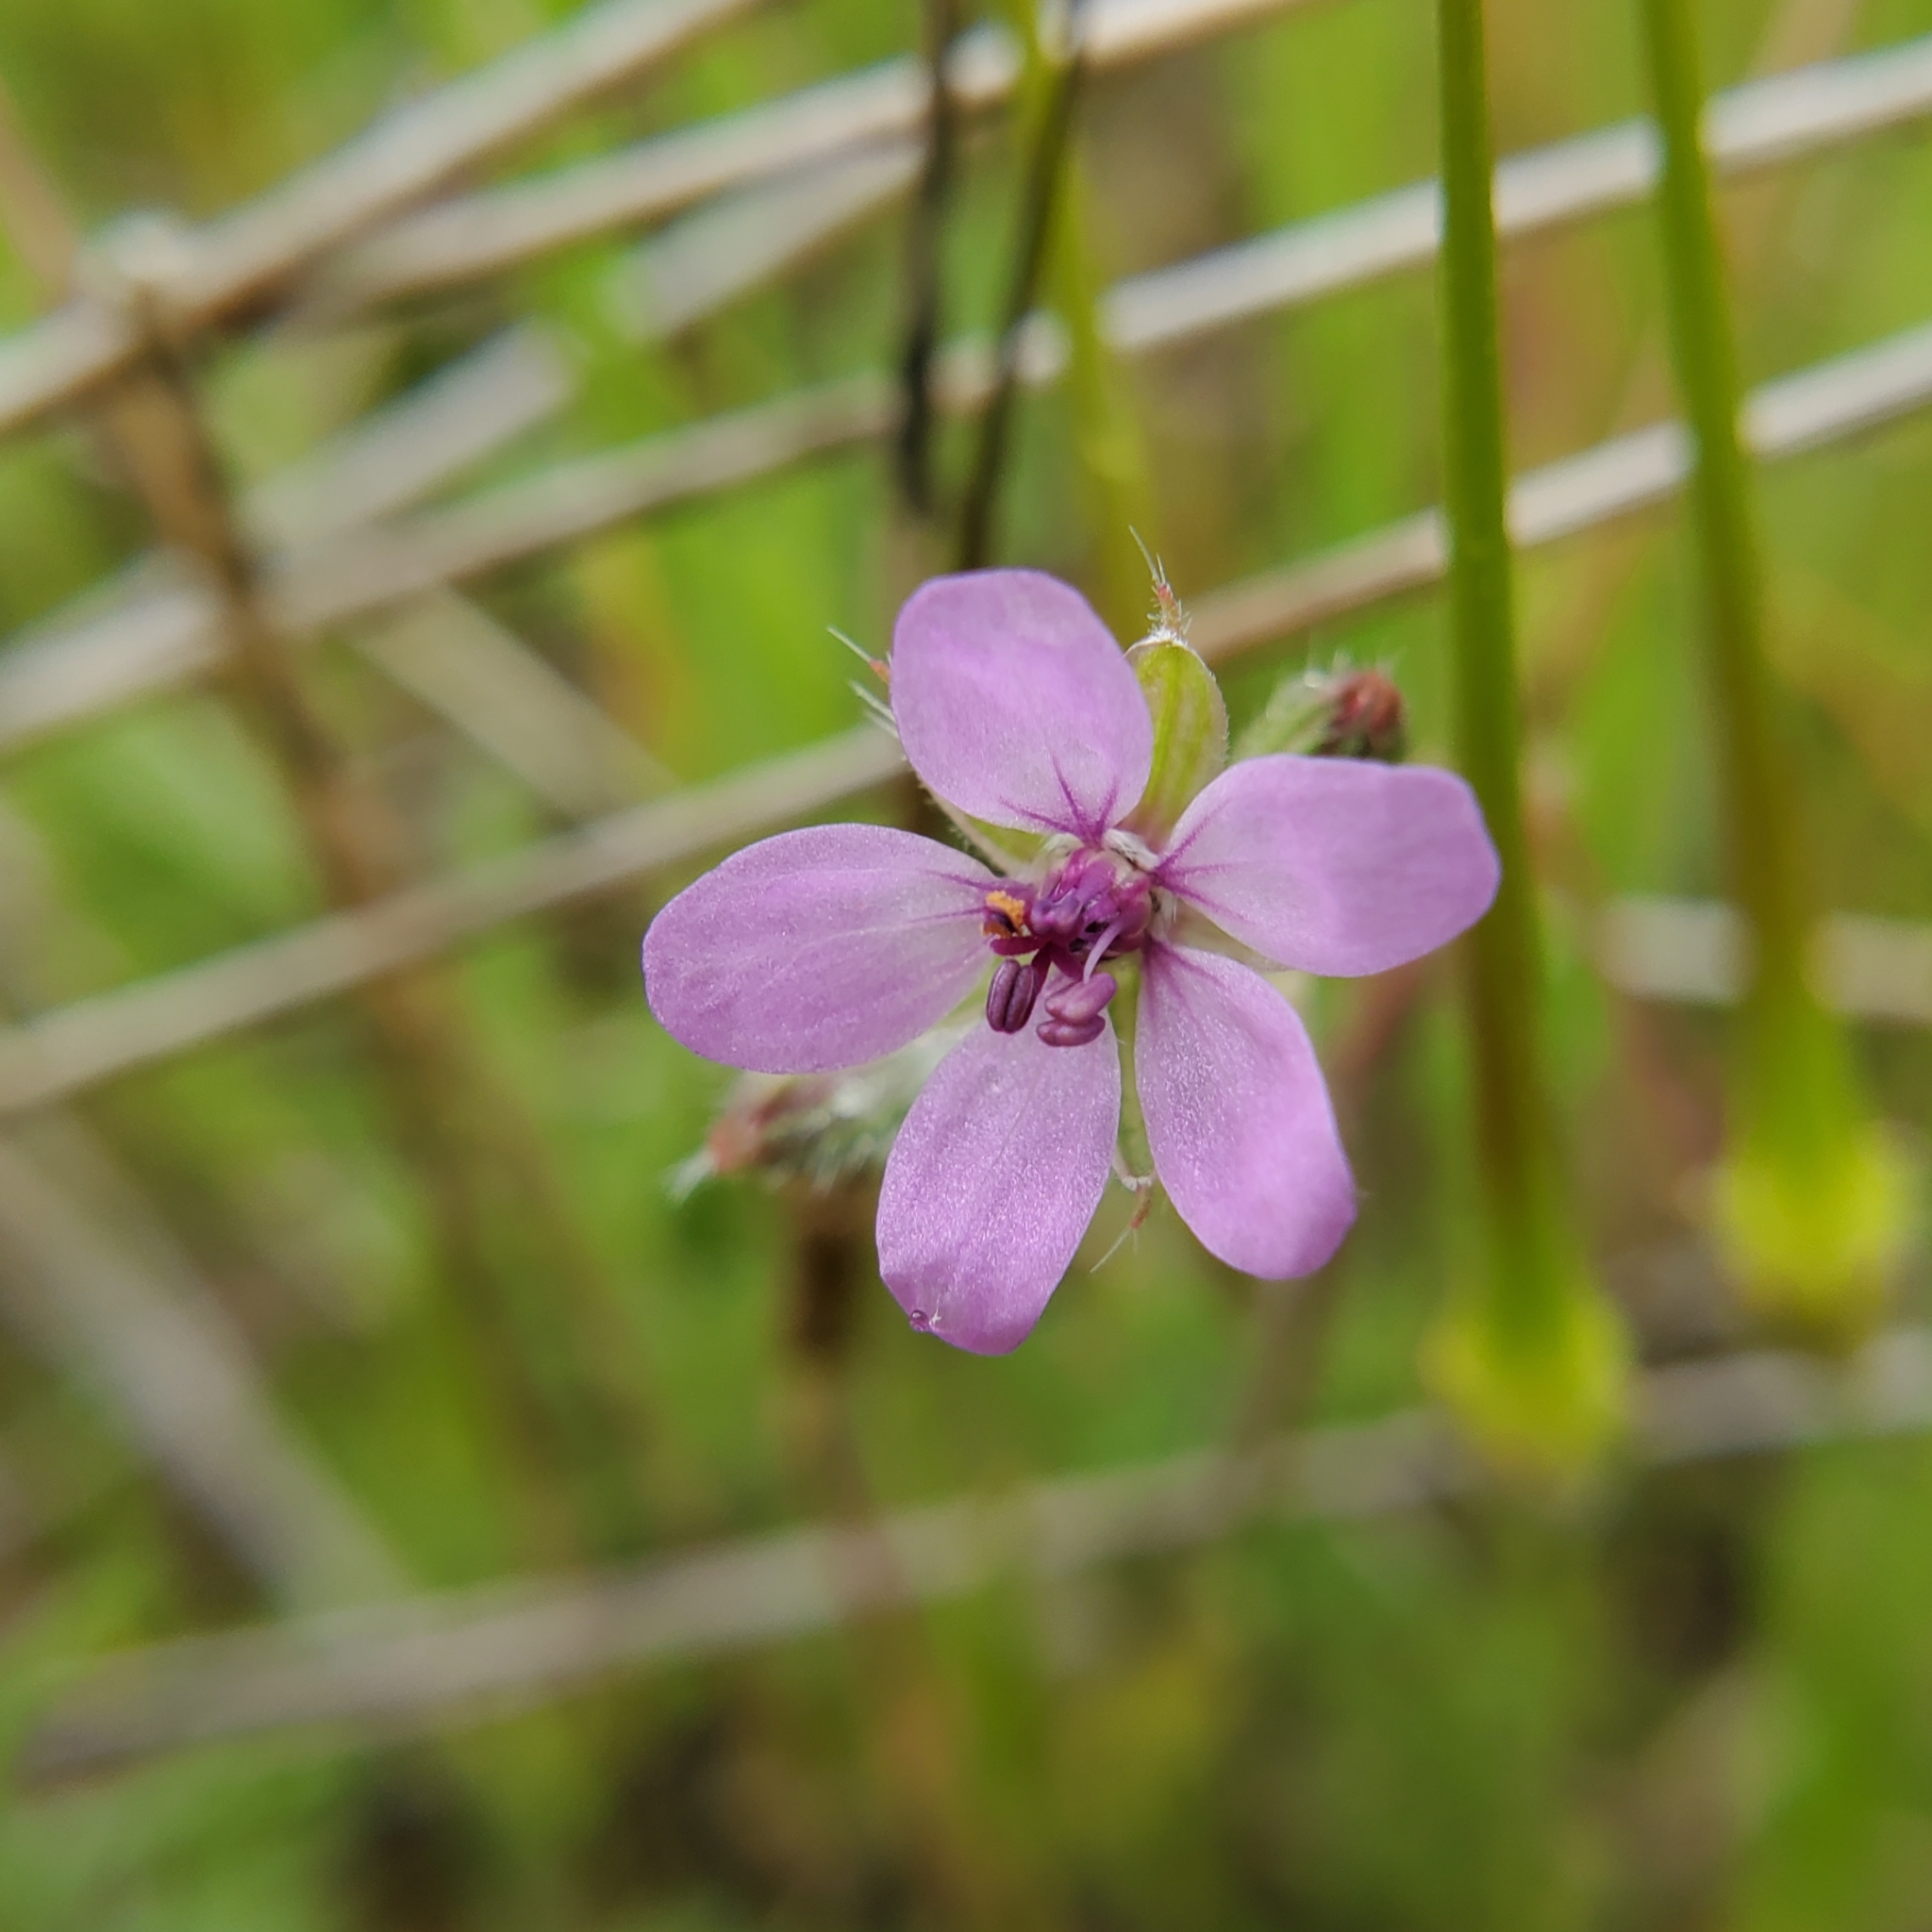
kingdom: Plantae
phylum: Tracheophyta
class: Magnoliopsida
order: Geraniales
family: Geraniaceae
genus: Erodium
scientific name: Erodium cicutarium
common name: Common stork's-bill
